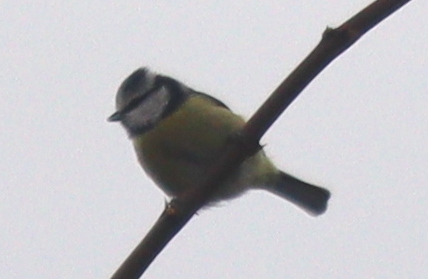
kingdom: Animalia
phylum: Chordata
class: Aves
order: Passeriformes
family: Paridae
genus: Cyanistes
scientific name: Cyanistes caeruleus
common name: Eurasian blue tit
